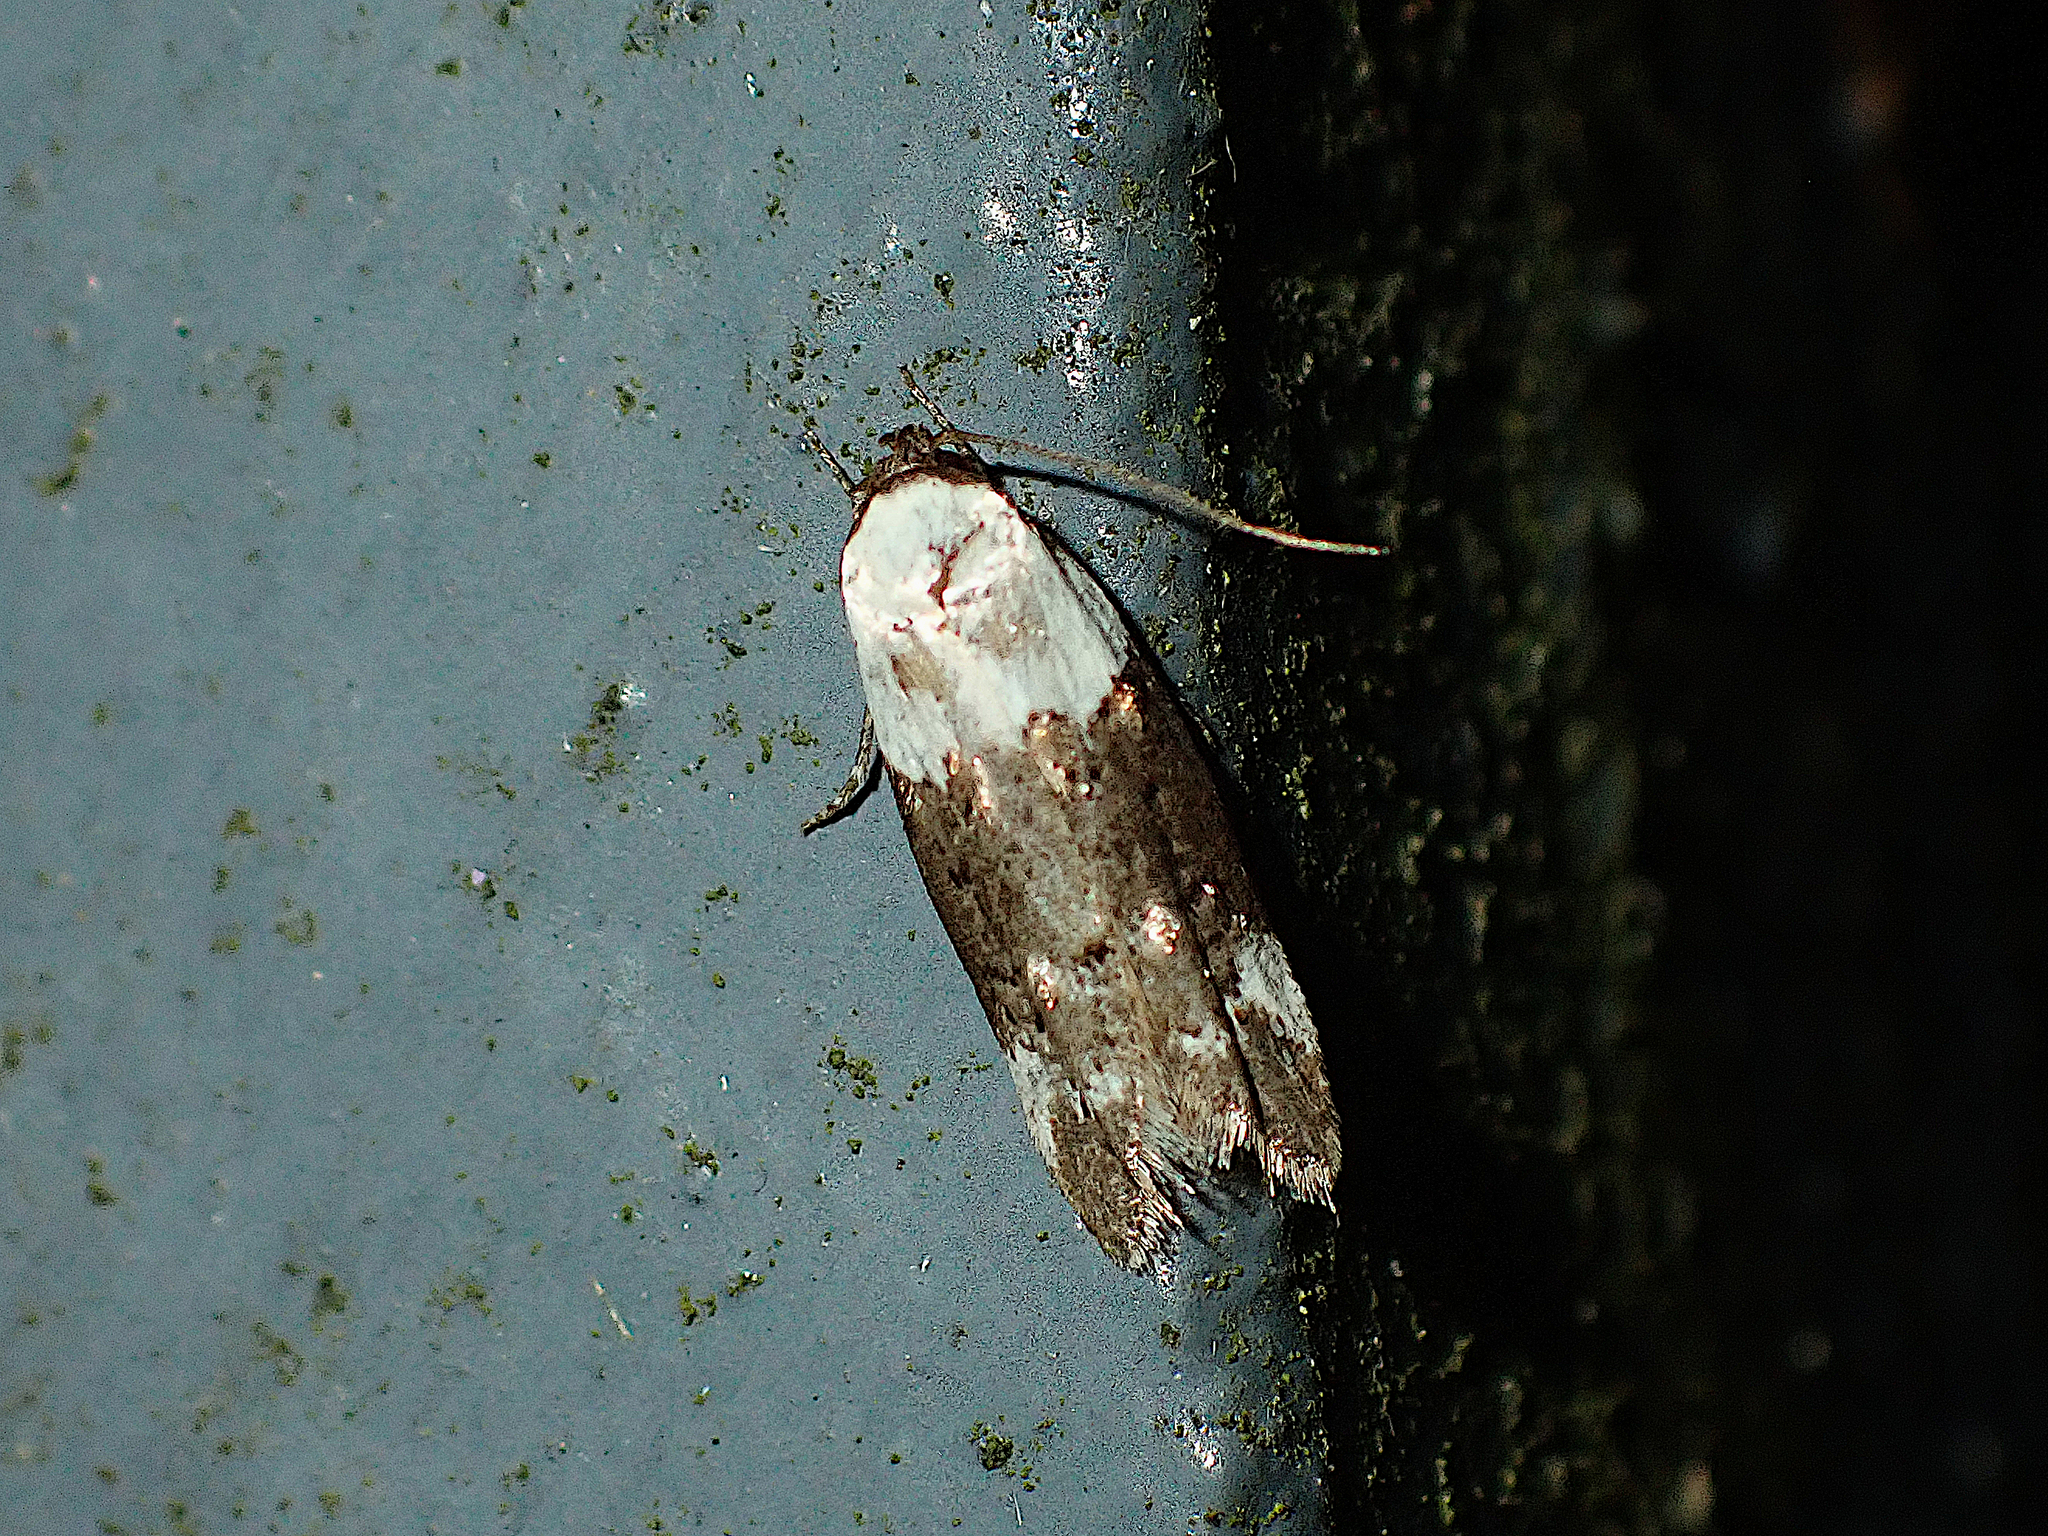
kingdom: Animalia
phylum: Arthropoda
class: Insecta
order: Lepidoptera
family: Oecophoridae
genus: Trachypepla
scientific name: Trachypepla euryleucota
